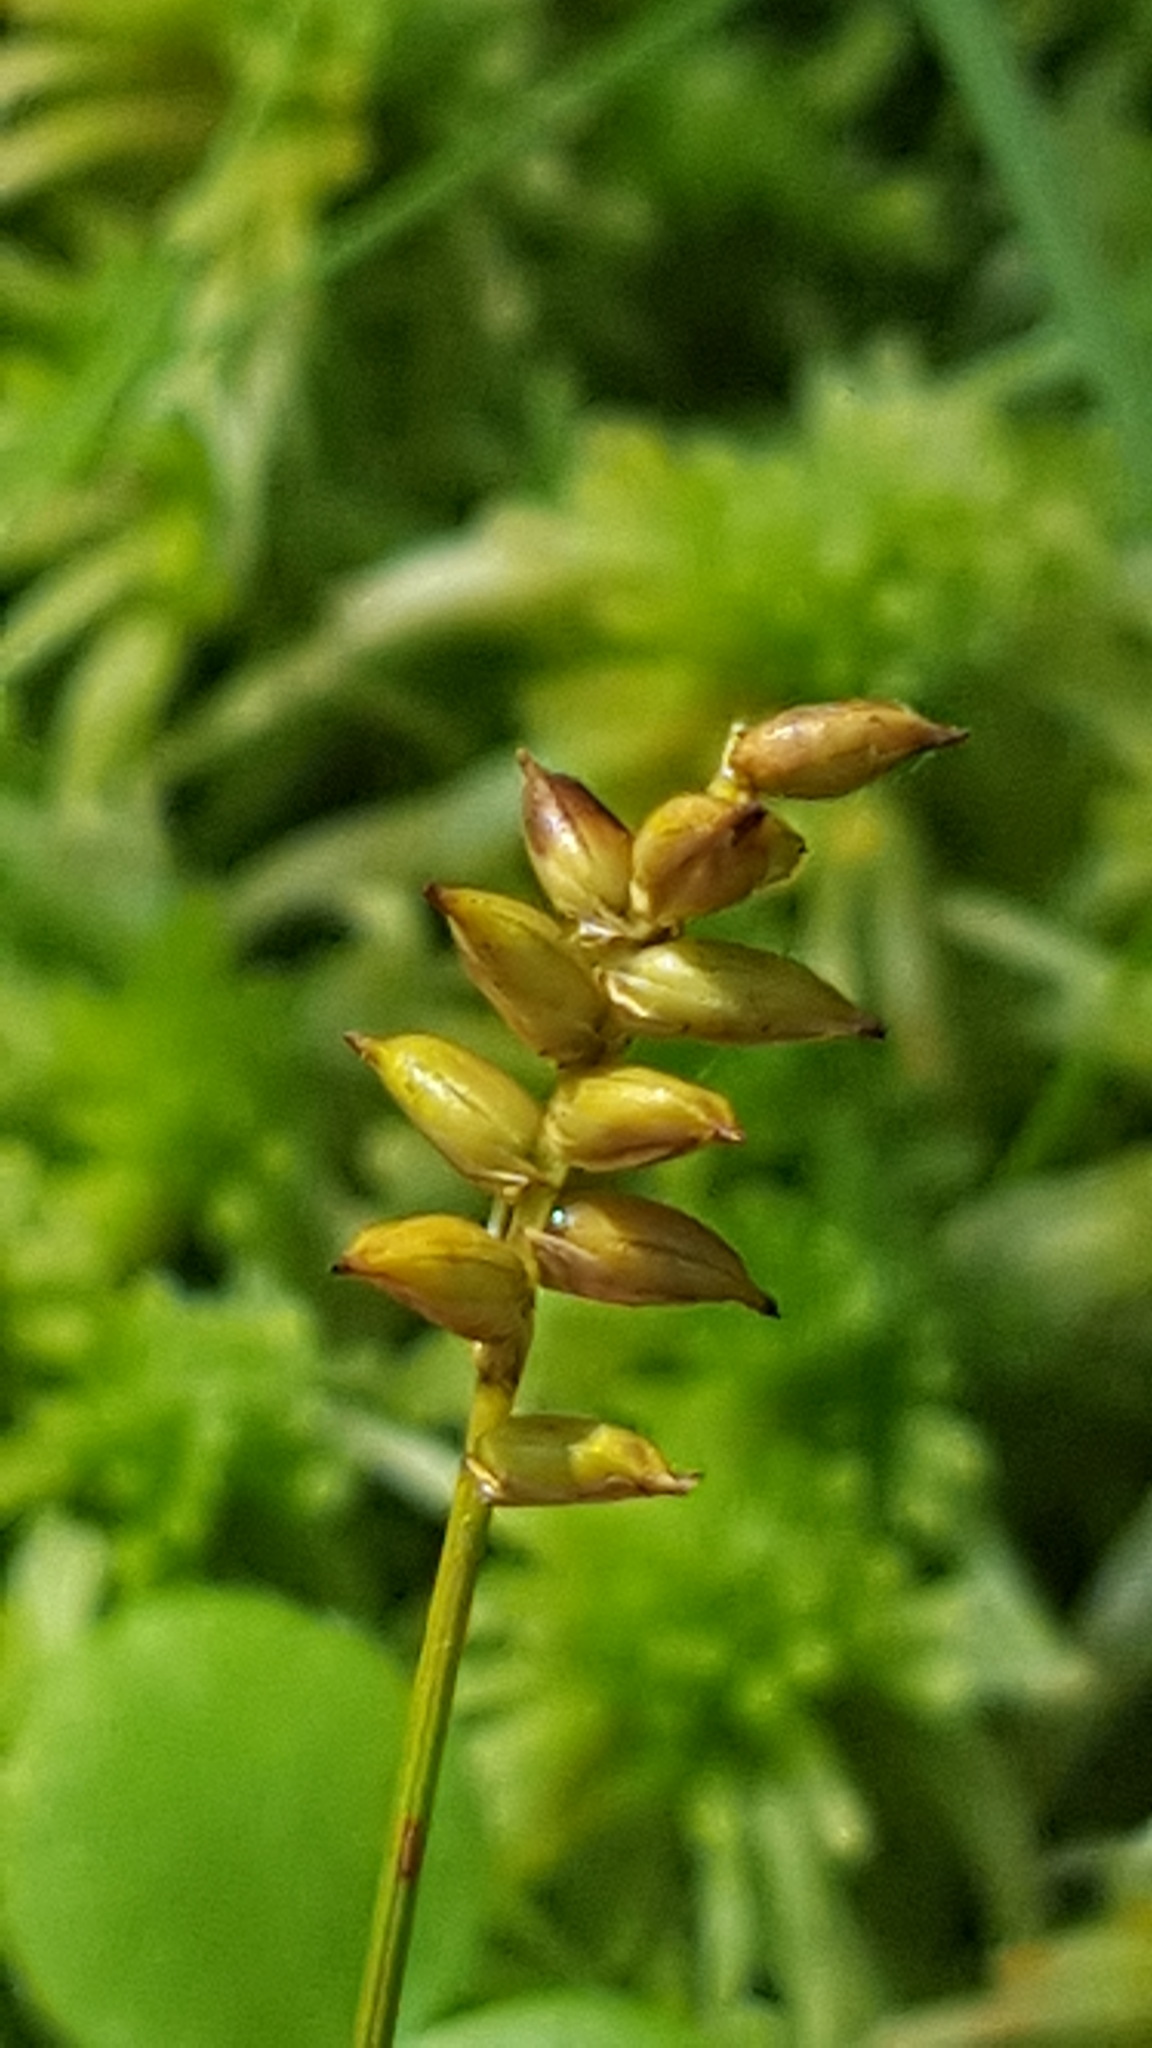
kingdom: Plantae
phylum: Tracheophyta
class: Liliopsida
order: Poales
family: Cyperaceae
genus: Carex
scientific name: Carex alascana
